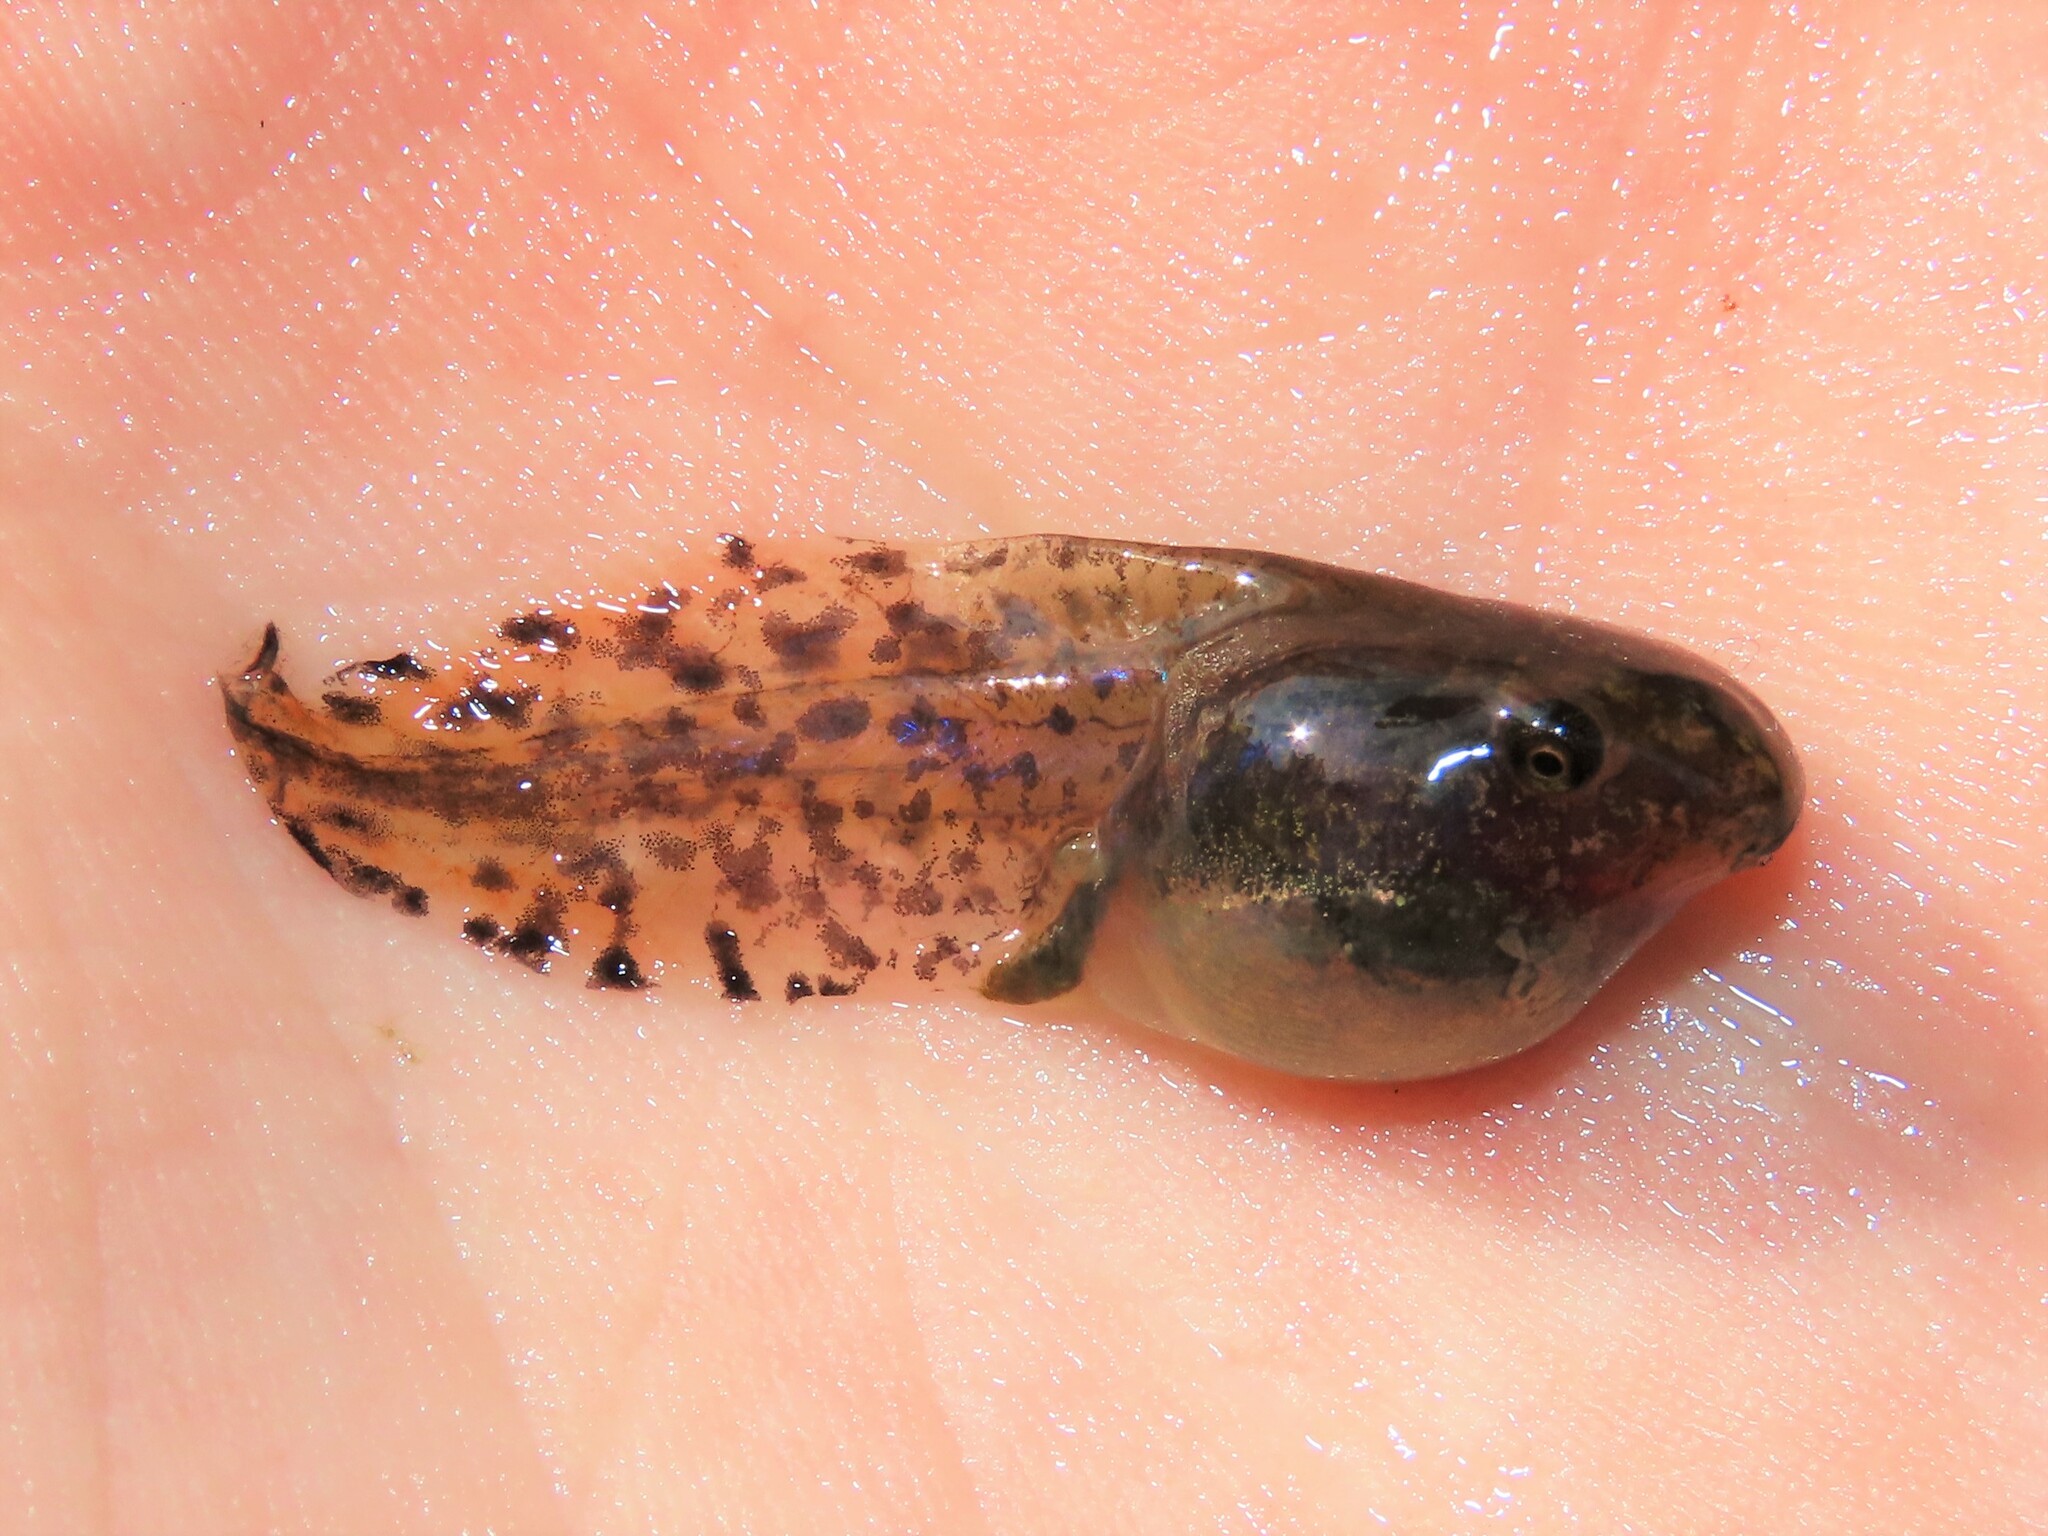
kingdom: Animalia
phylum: Chordata
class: Amphibia
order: Anura
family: Hylidae
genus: Dryophytes
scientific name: Dryophytes versicolor
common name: Gray treefrog
